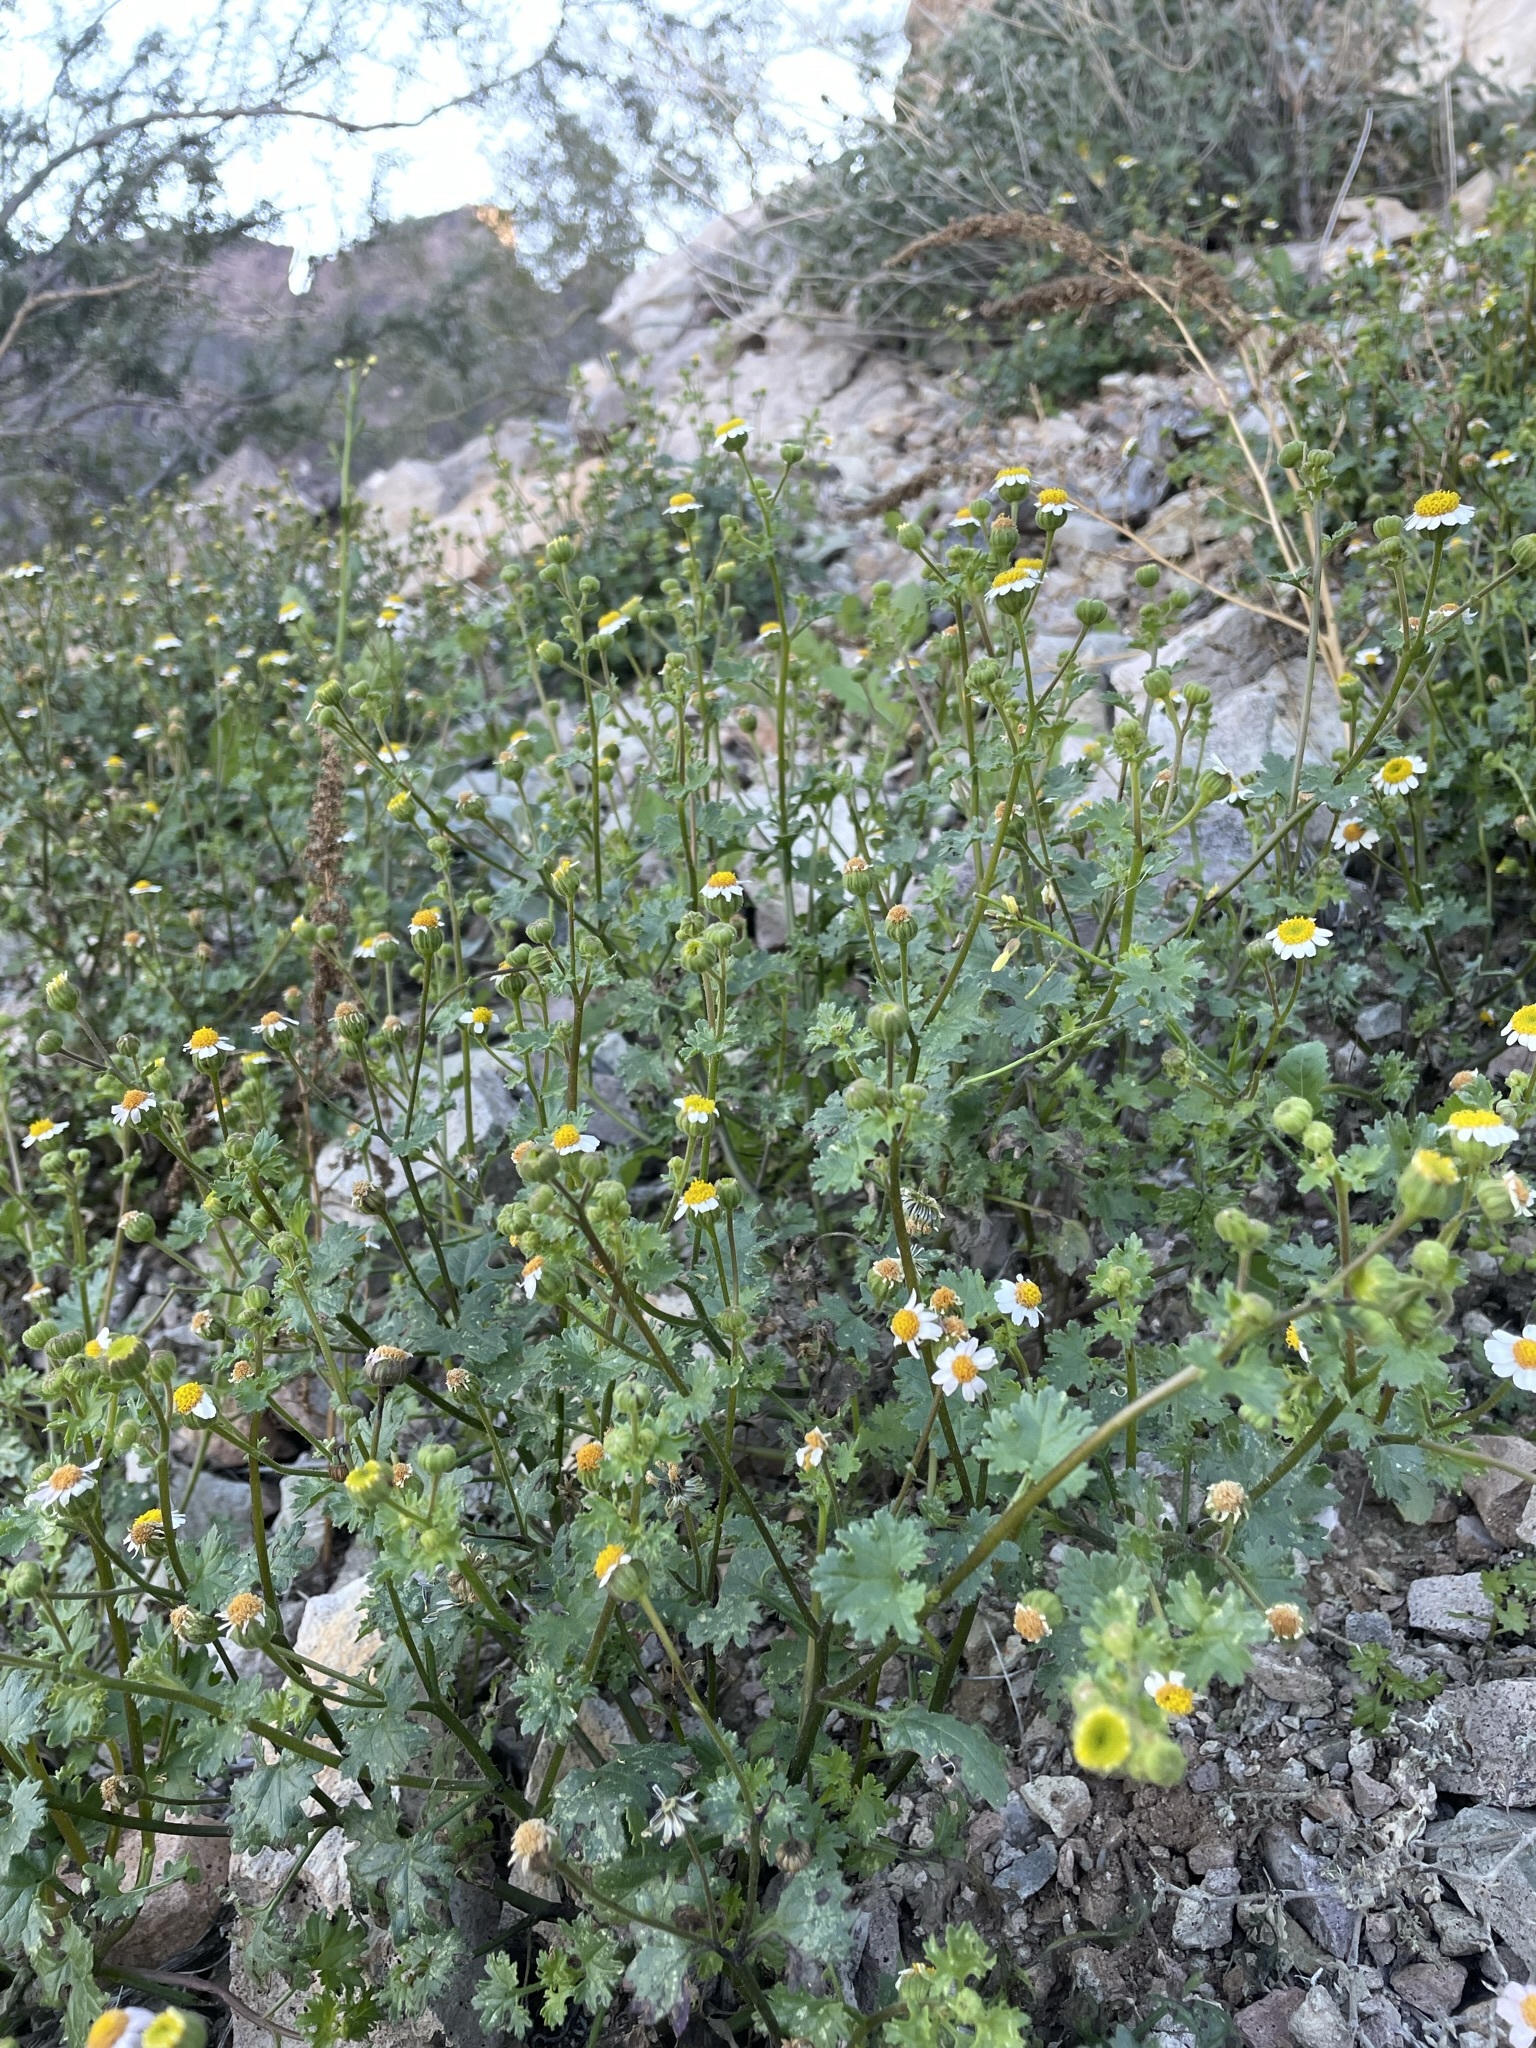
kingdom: Plantae
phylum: Tracheophyta
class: Magnoliopsida
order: Asterales
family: Asteraceae
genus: Laphamia
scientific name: Laphamia emoryi
